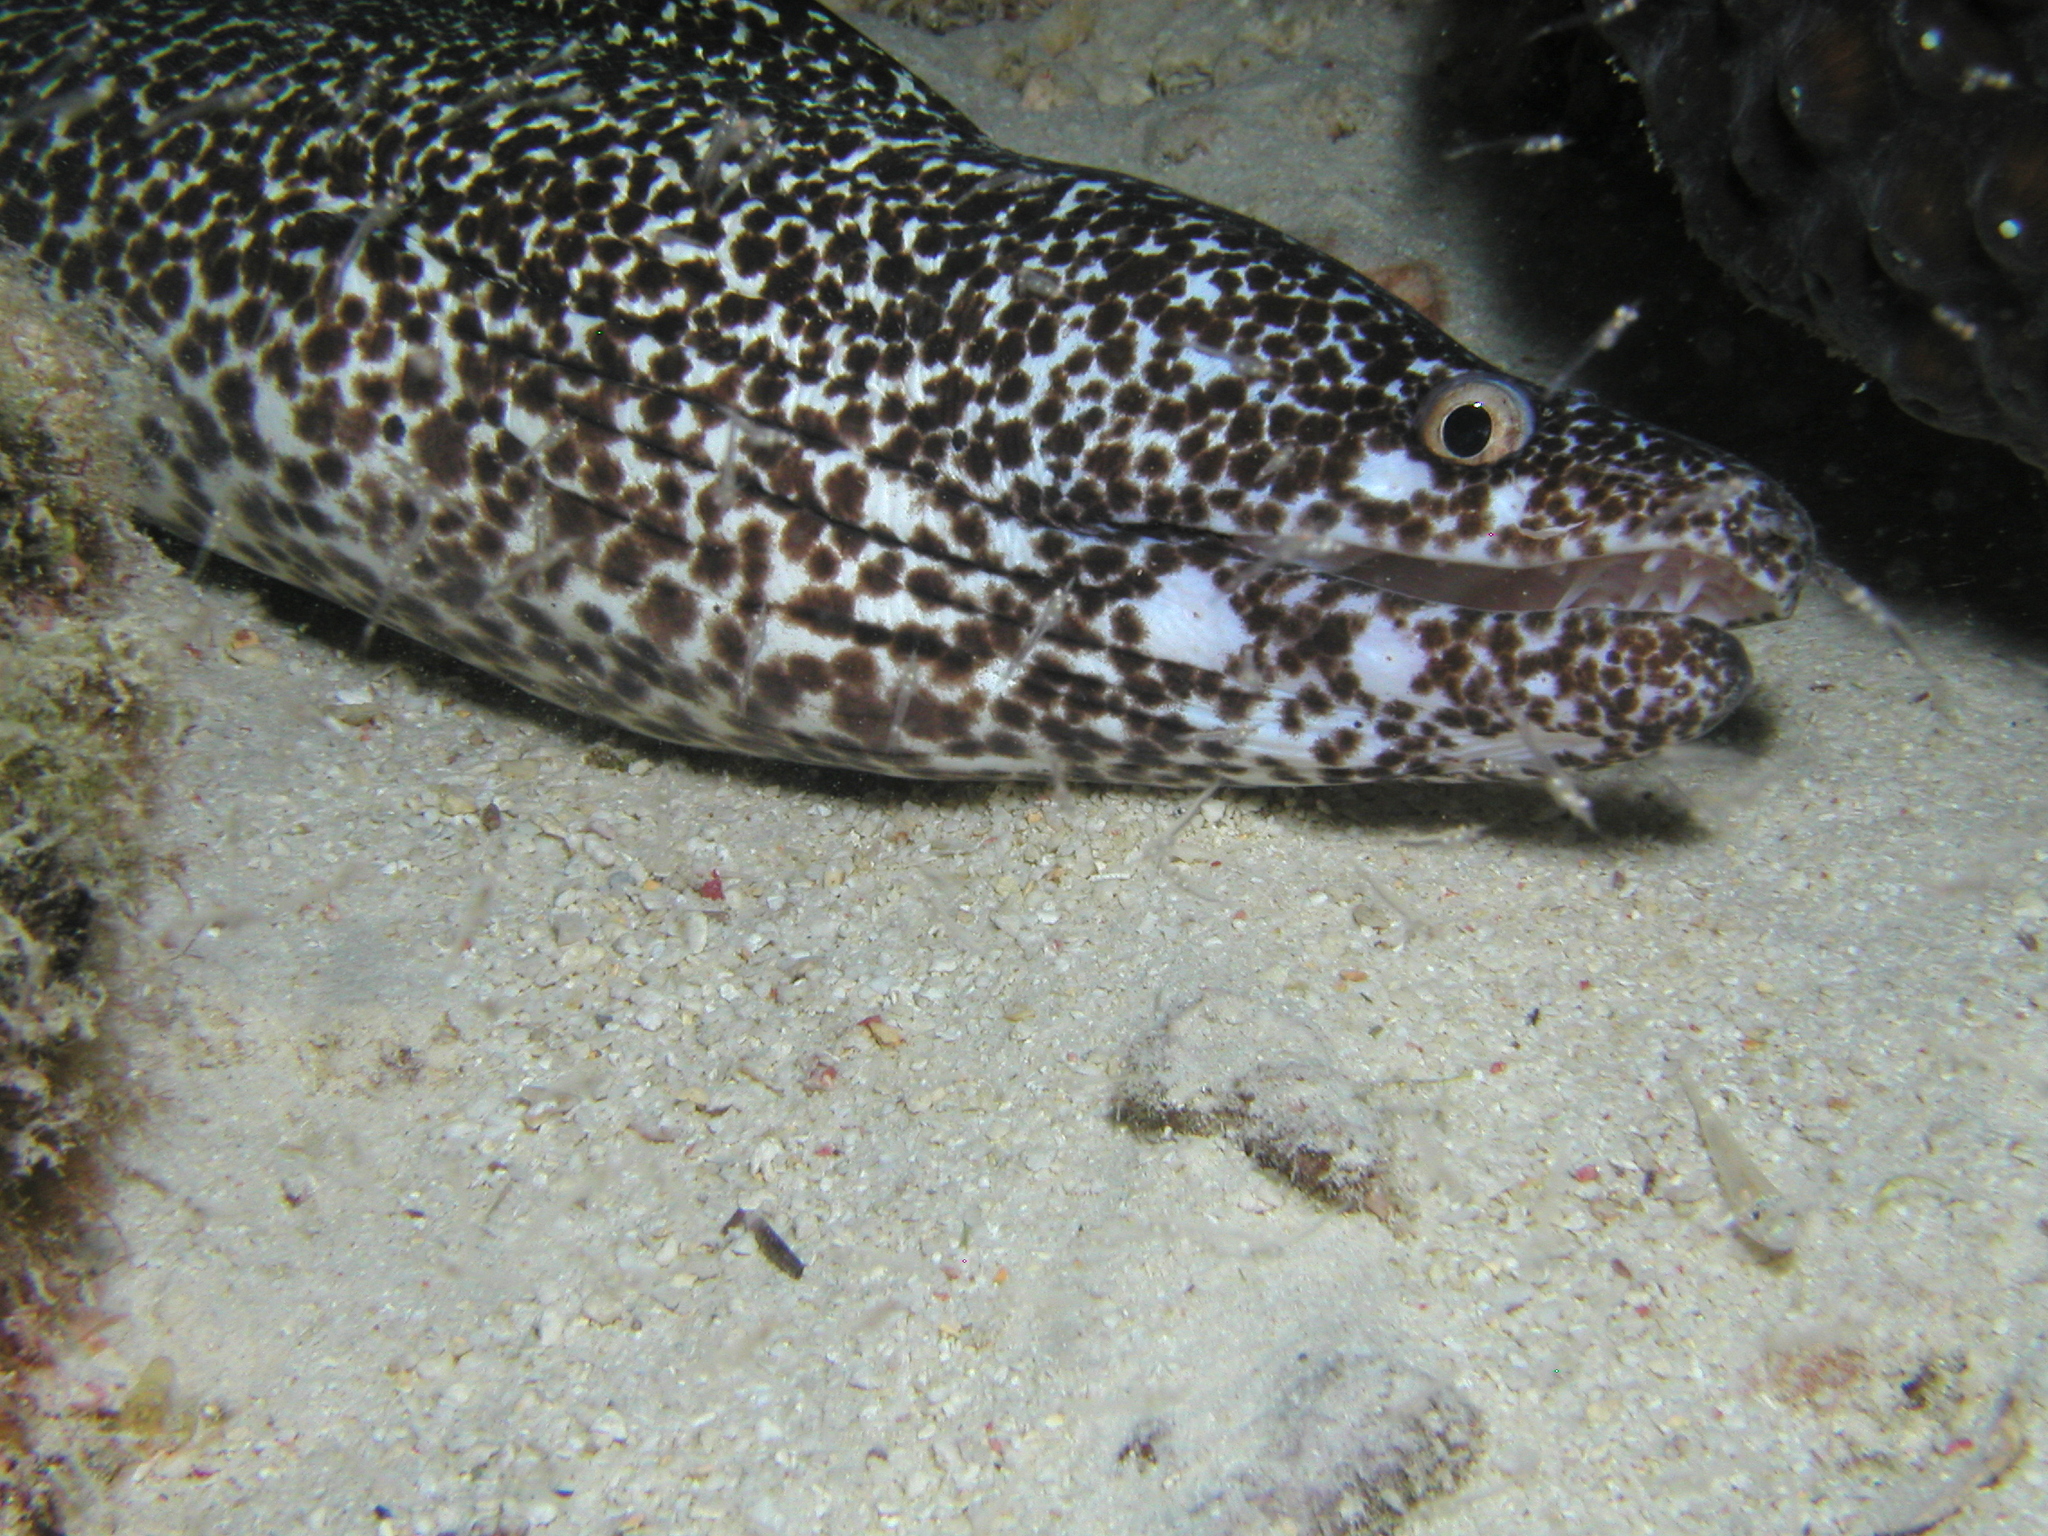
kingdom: Animalia
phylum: Chordata
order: Anguilliformes
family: Muraenidae
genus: Gymnothorax
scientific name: Gymnothorax moringa
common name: Spotted moray
